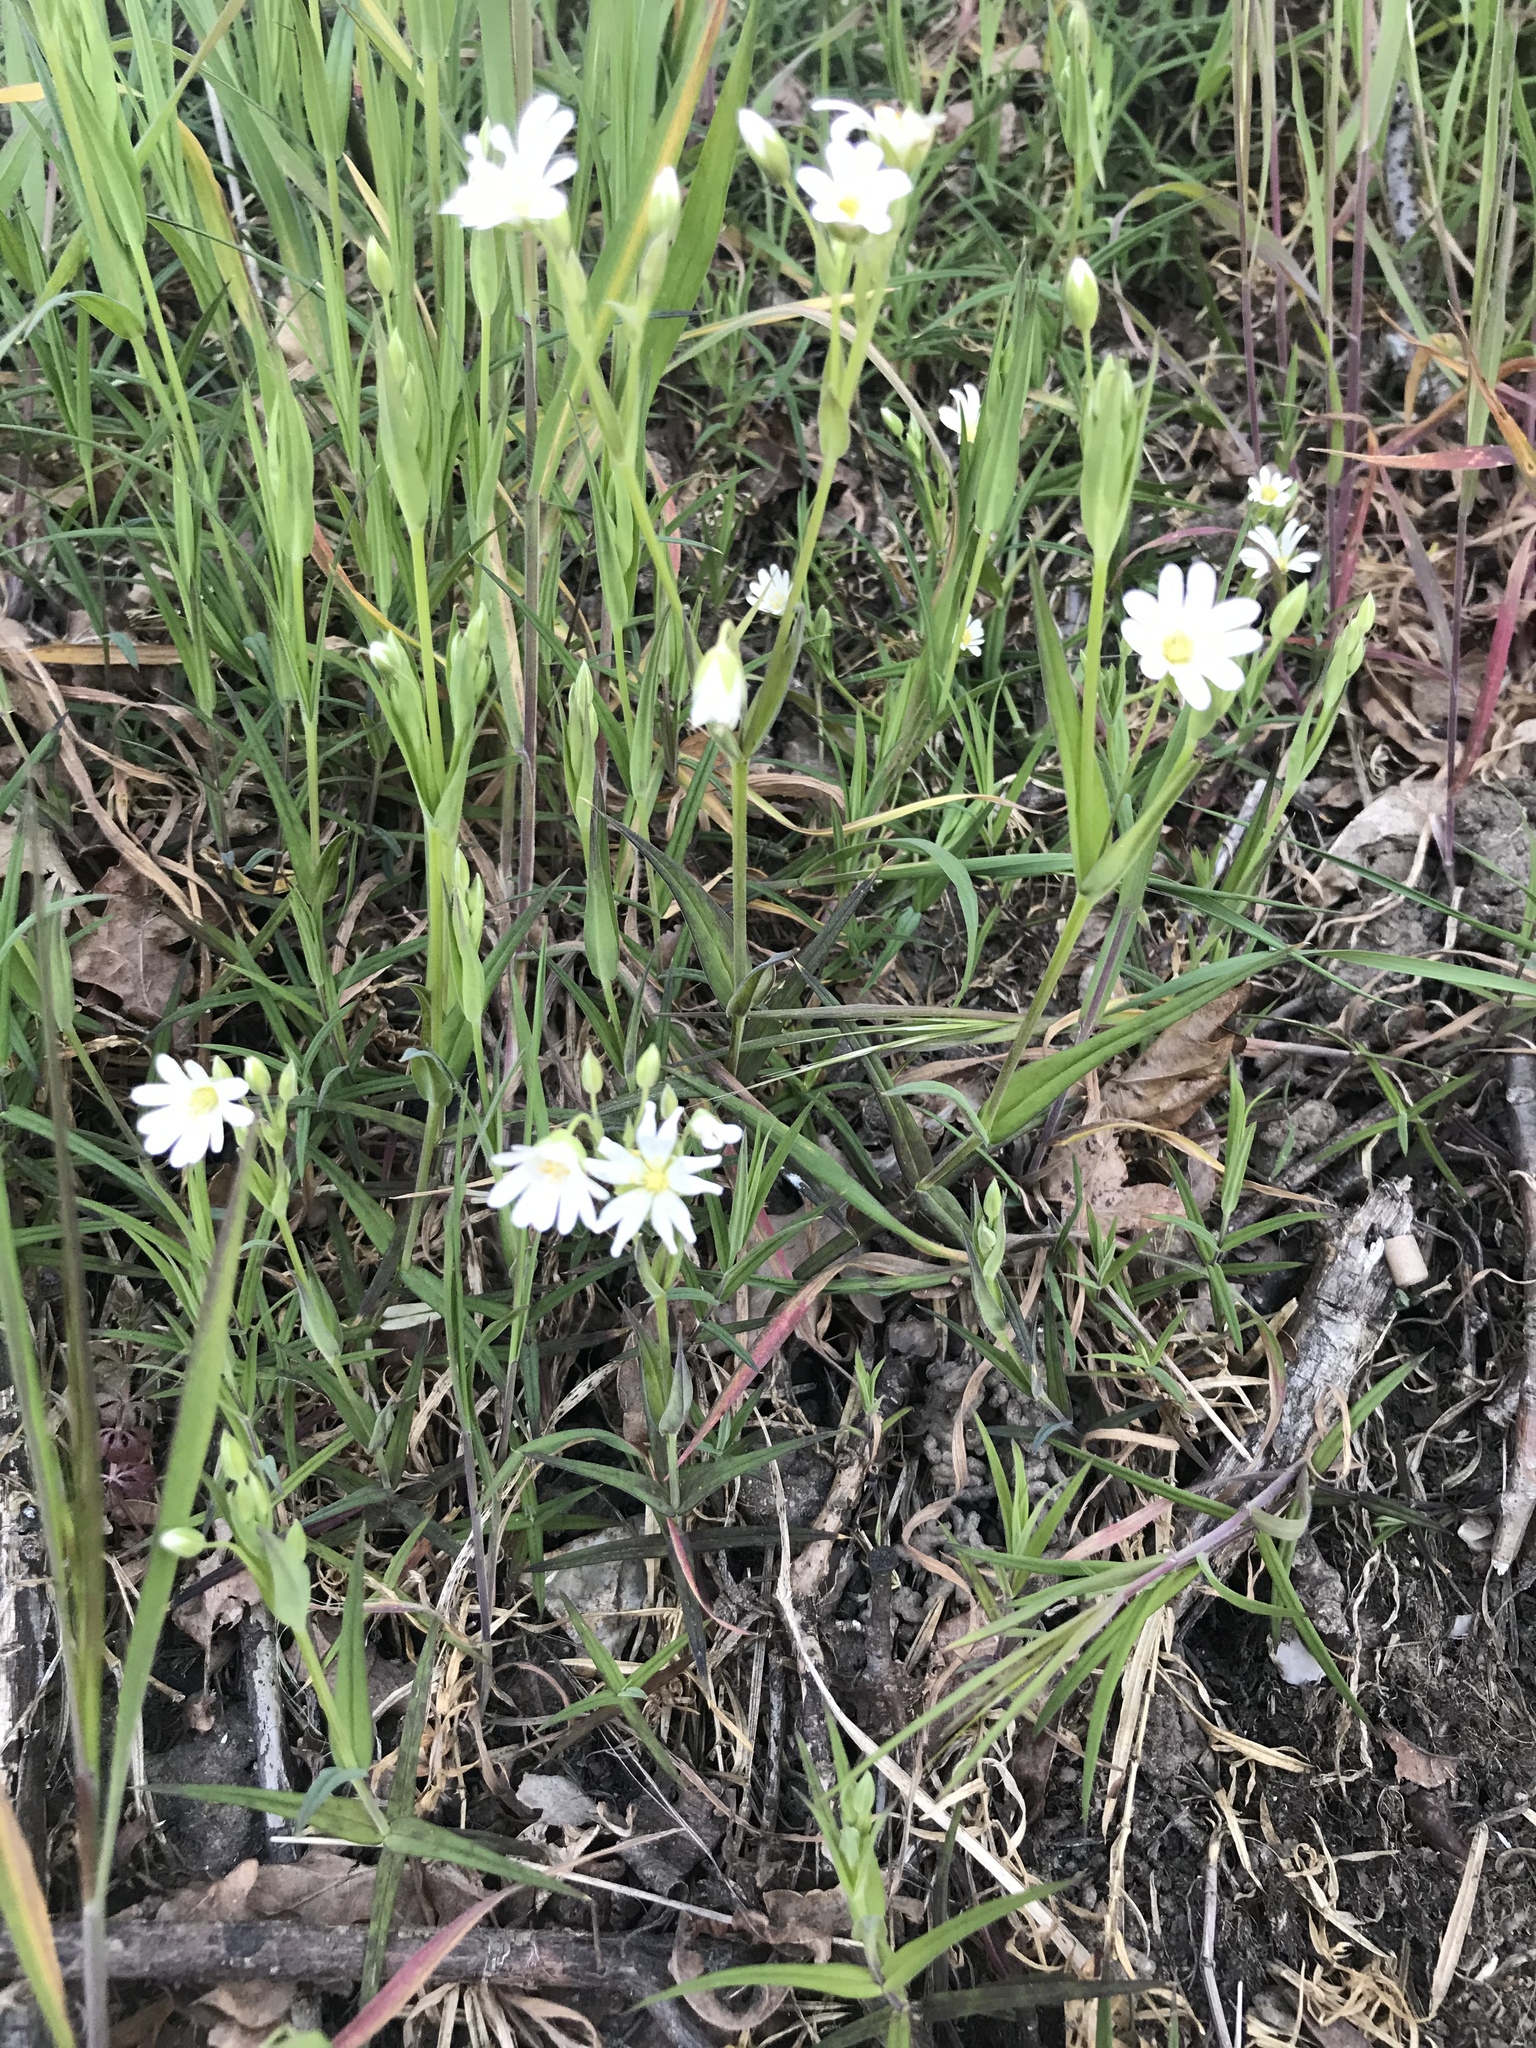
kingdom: Plantae
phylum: Tracheophyta
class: Magnoliopsida
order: Caryophyllales
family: Caryophyllaceae
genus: Rabelera
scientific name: Rabelera holostea
